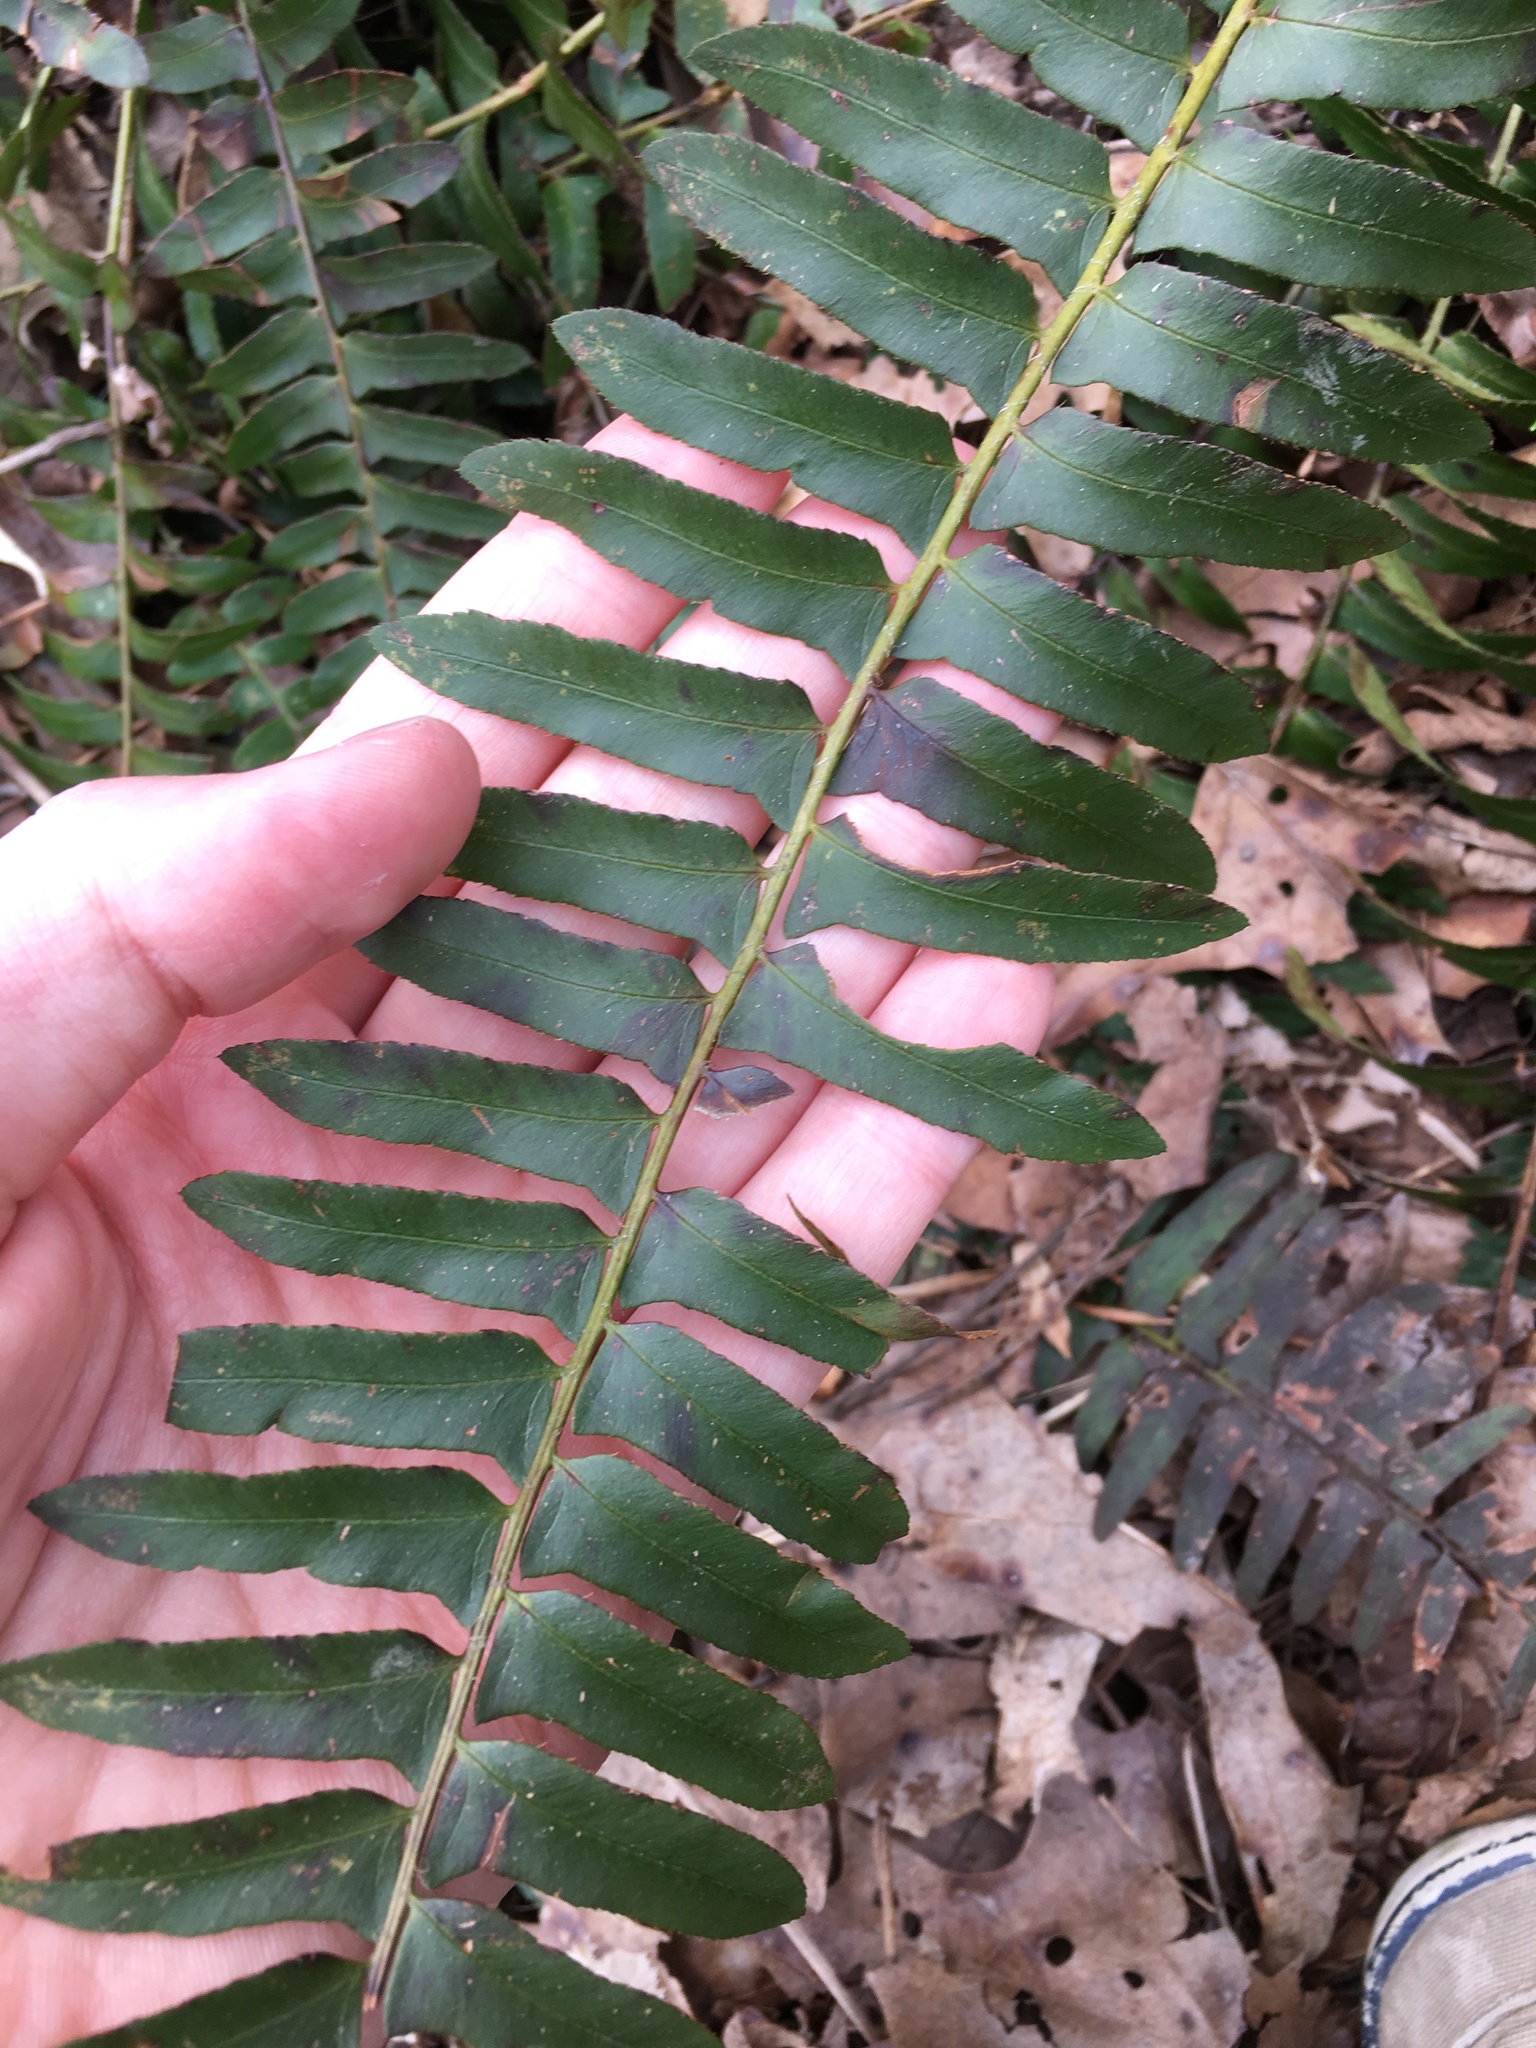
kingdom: Plantae
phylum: Tracheophyta
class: Polypodiopsida
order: Polypodiales
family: Dryopteridaceae
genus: Polystichum
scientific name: Polystichum acrostichoides
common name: Christmas fern
